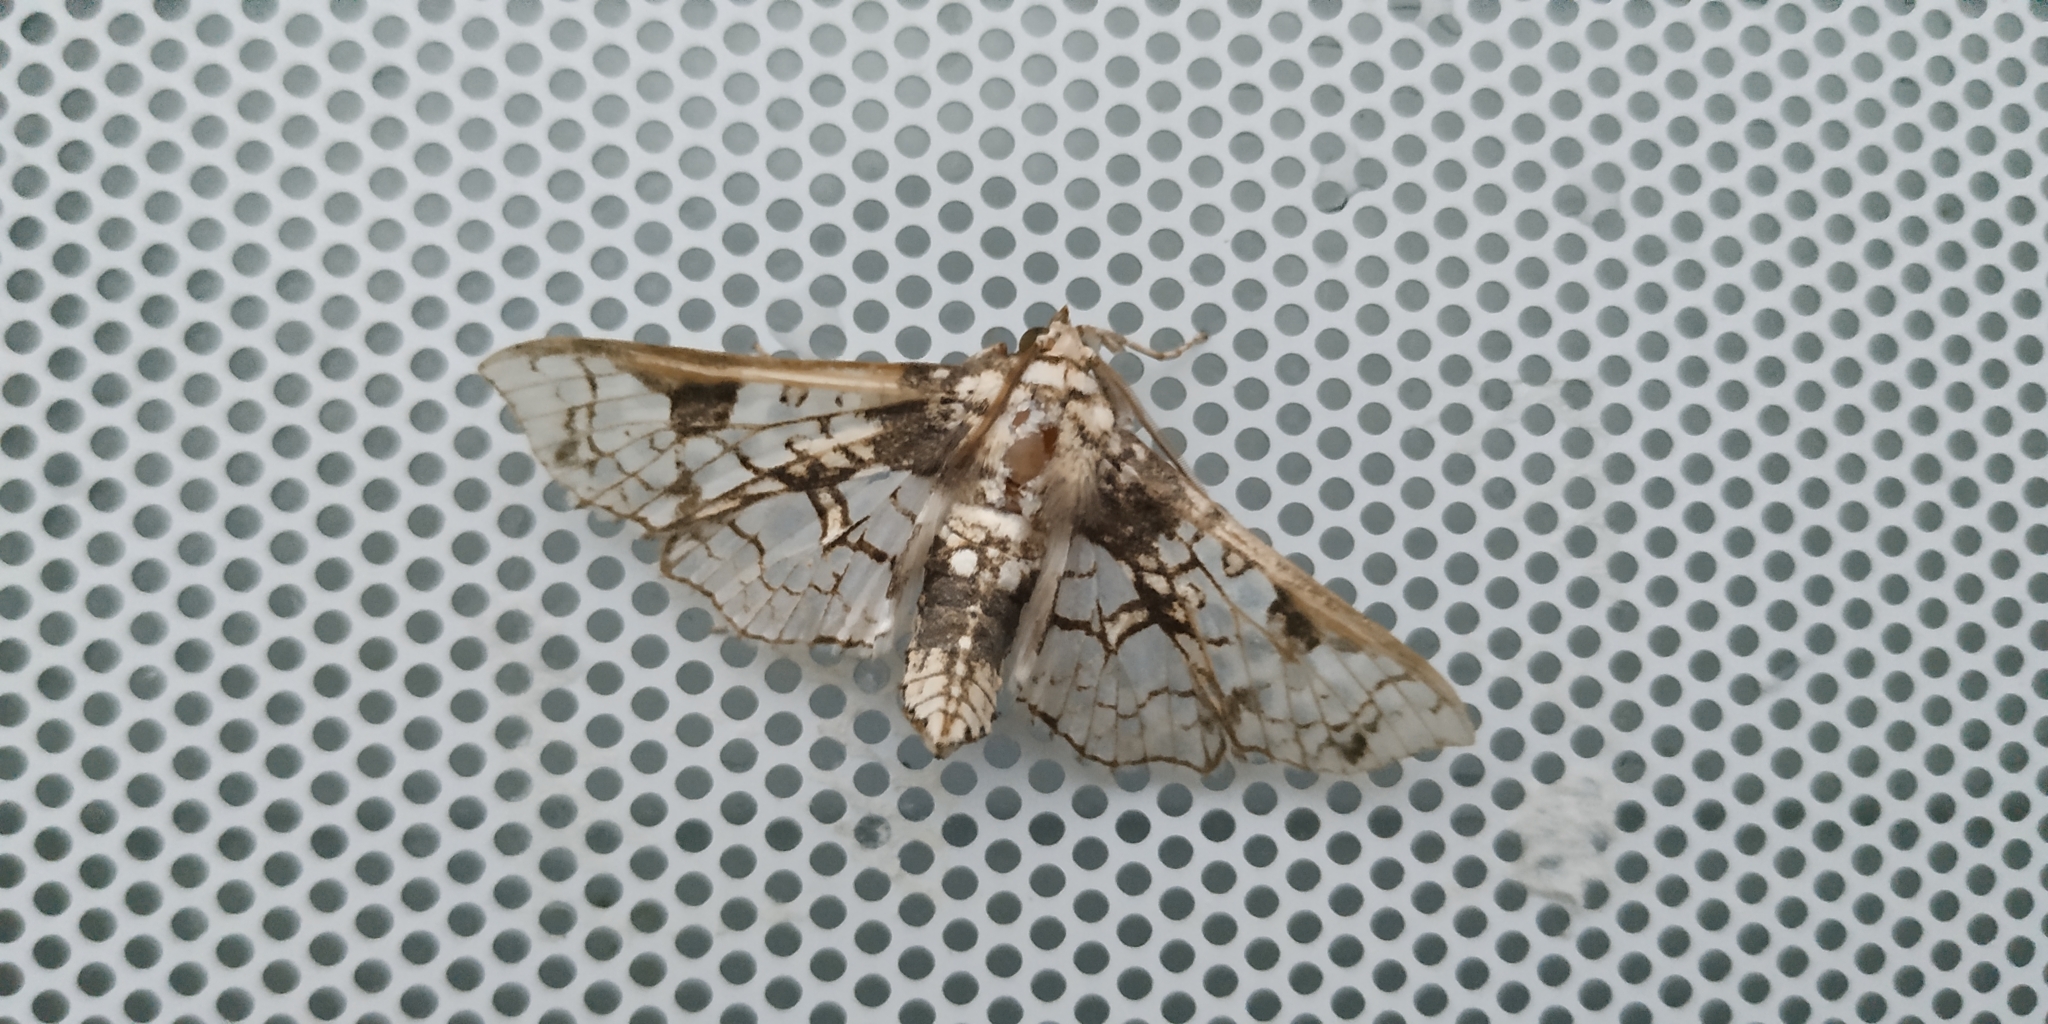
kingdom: Animalia
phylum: Arthropoda
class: Insecta
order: Lepidoptera
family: Crambidae
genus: Megastes
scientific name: Megastes praxiteles
